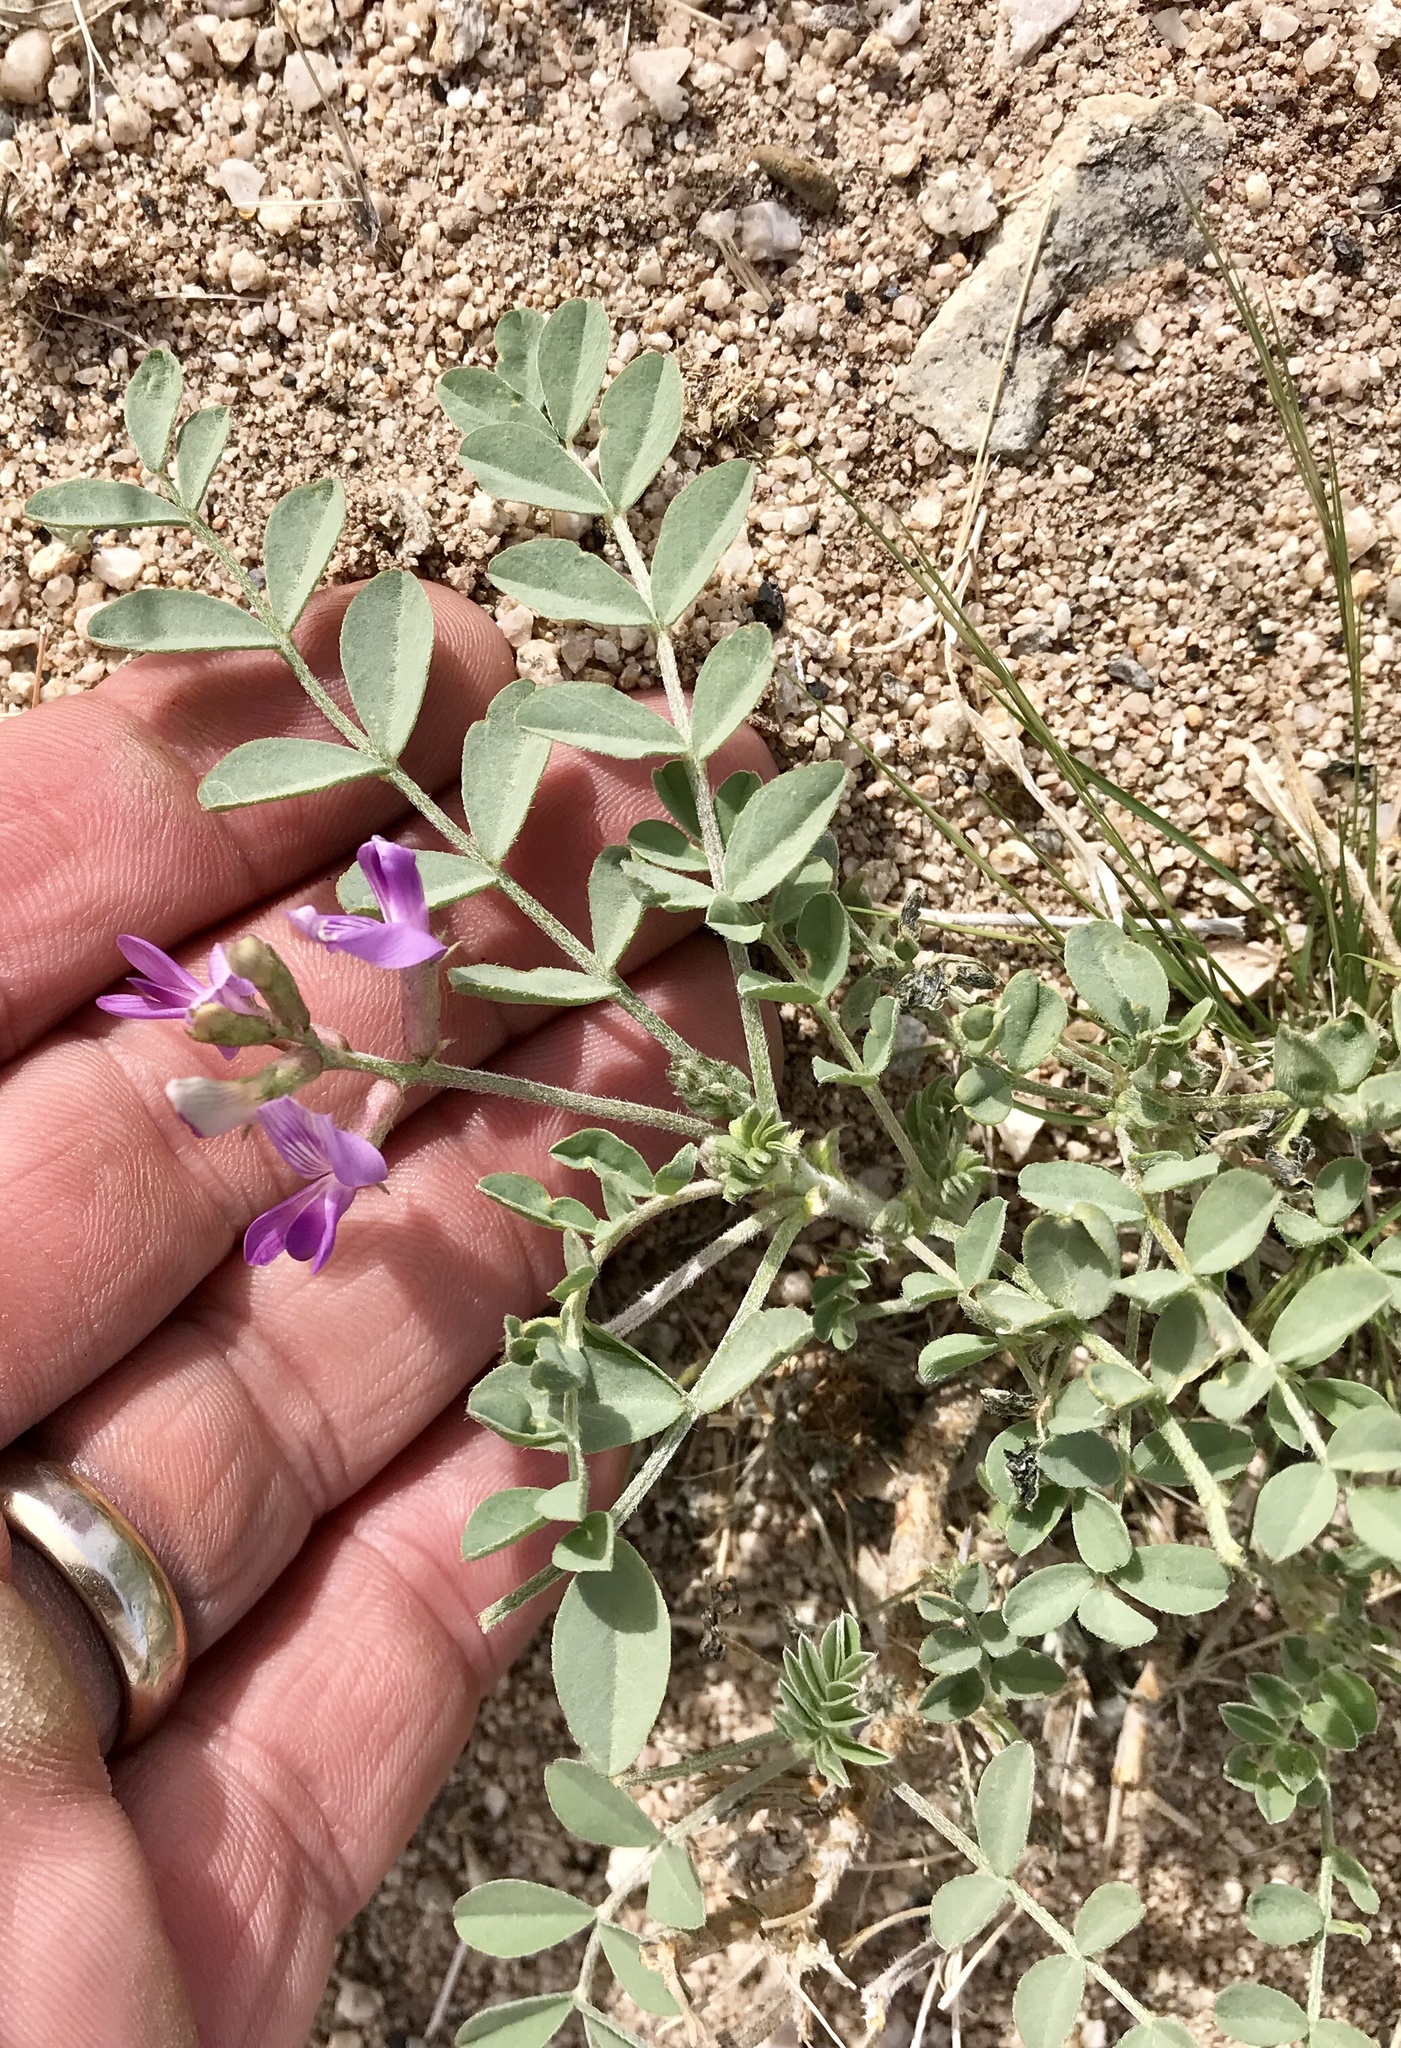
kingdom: Plantae
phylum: Tracheophyta
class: Magnoliopsida
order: Fabales
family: Fabaceae
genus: Astragalus
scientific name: Astragalus lentiginosus
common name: Freckled milkvetch
